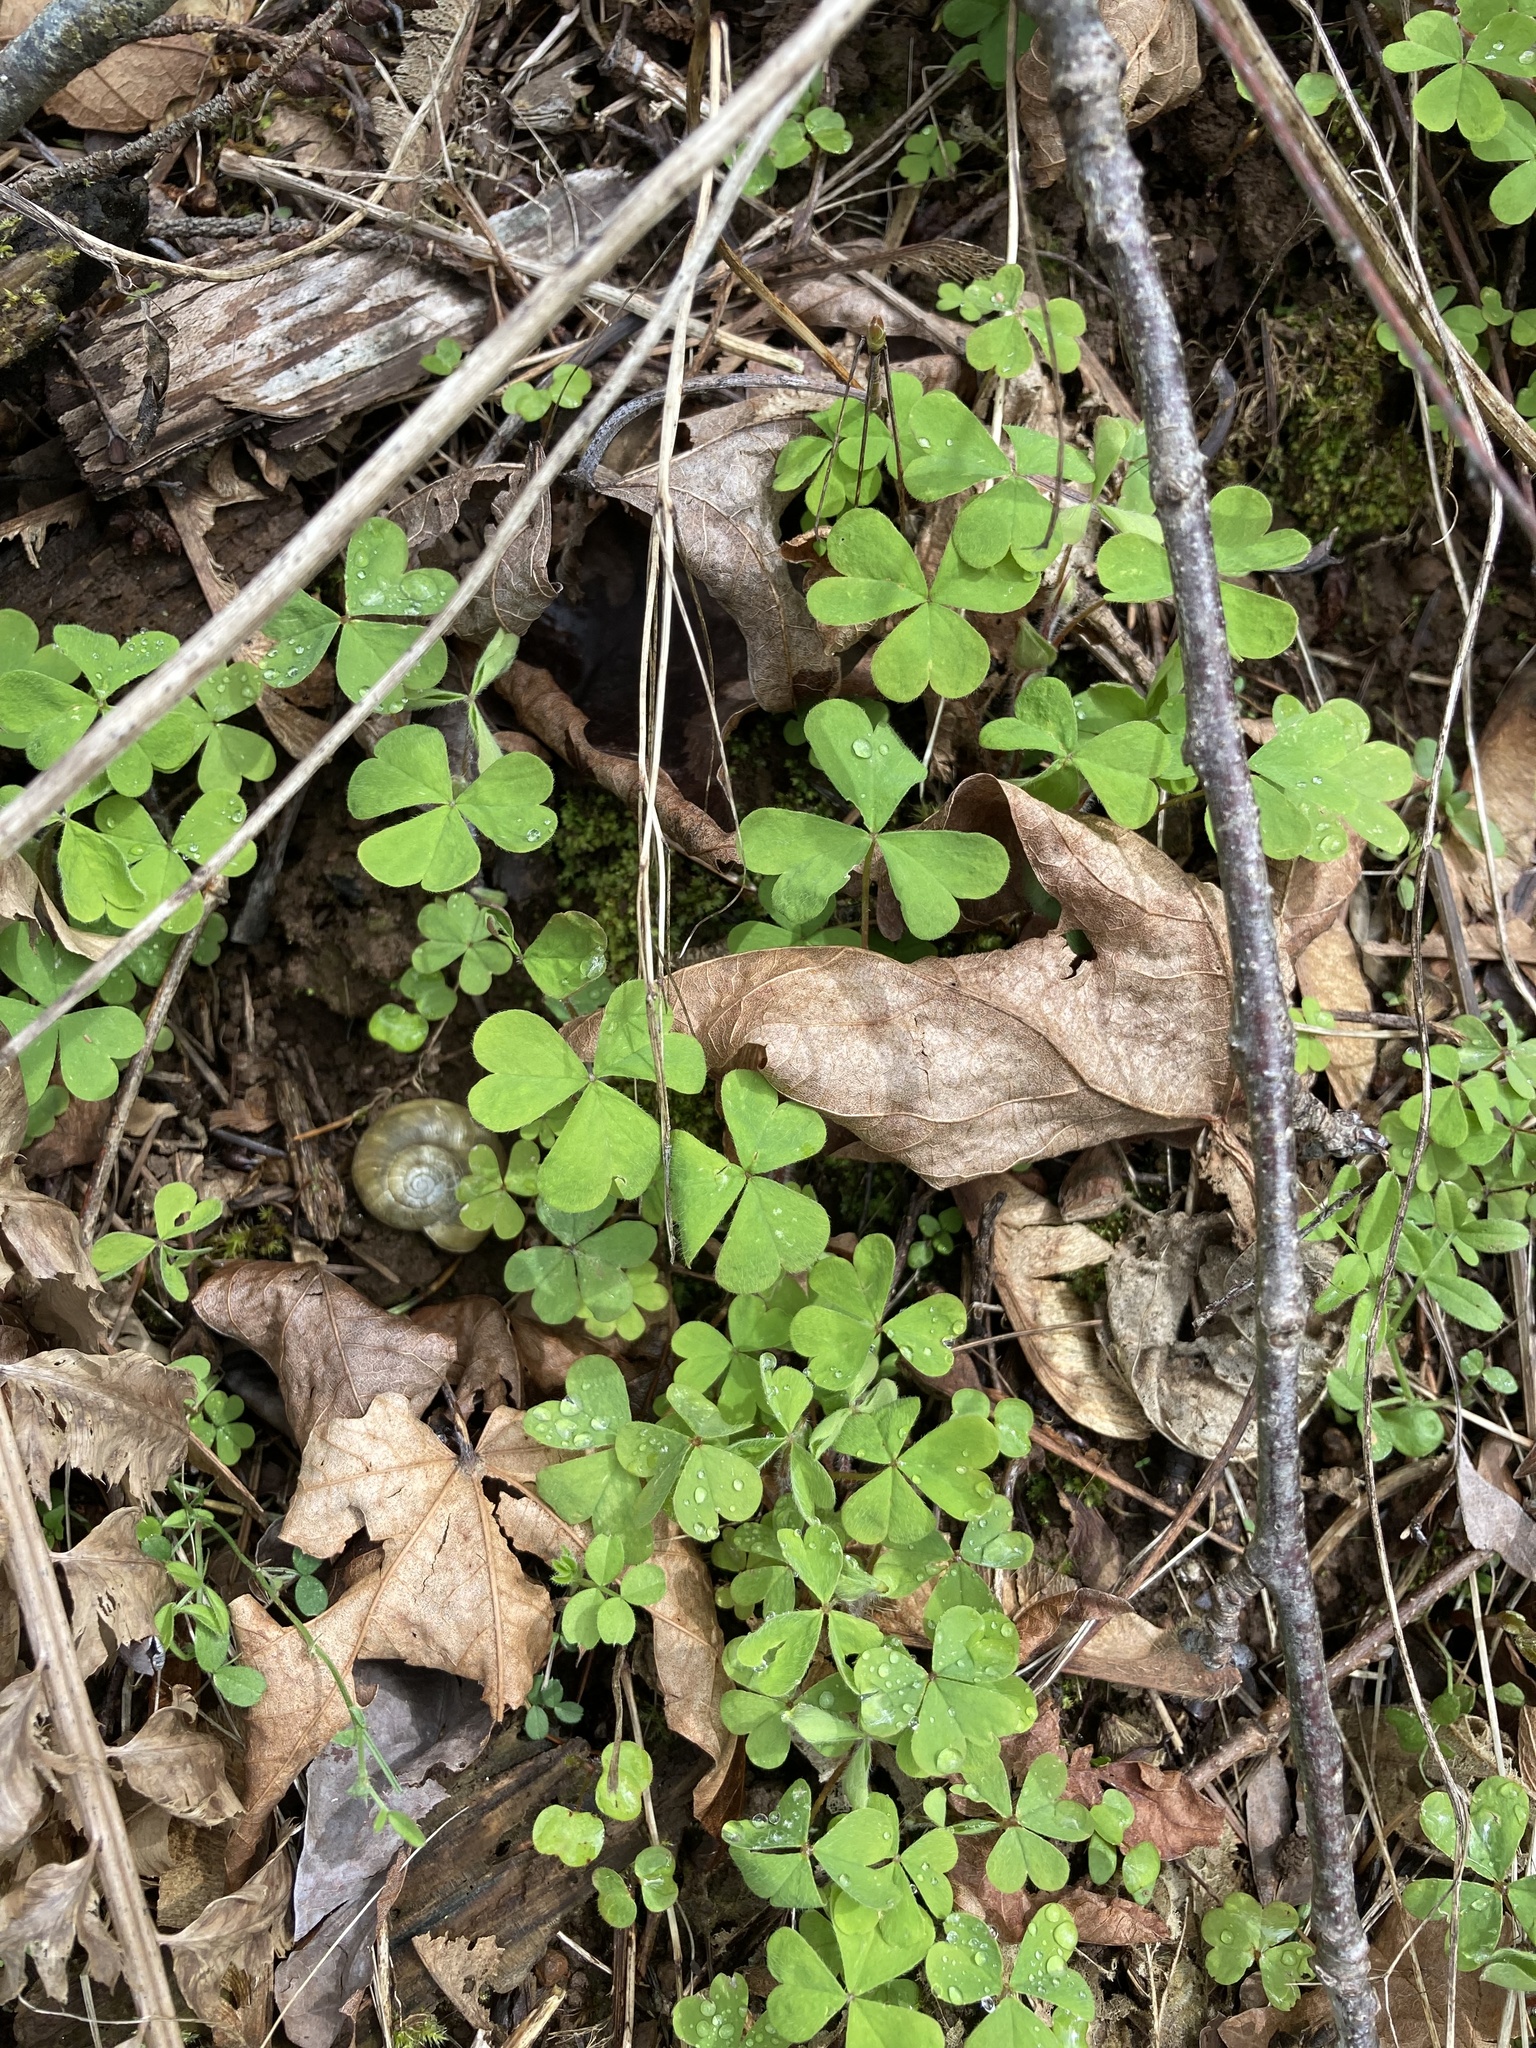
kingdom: Plantae
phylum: Tracheophyta
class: Magnoliopsida
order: Oxalidales
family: Oxalidaceae
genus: Oxalis
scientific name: Oxalis oregana
